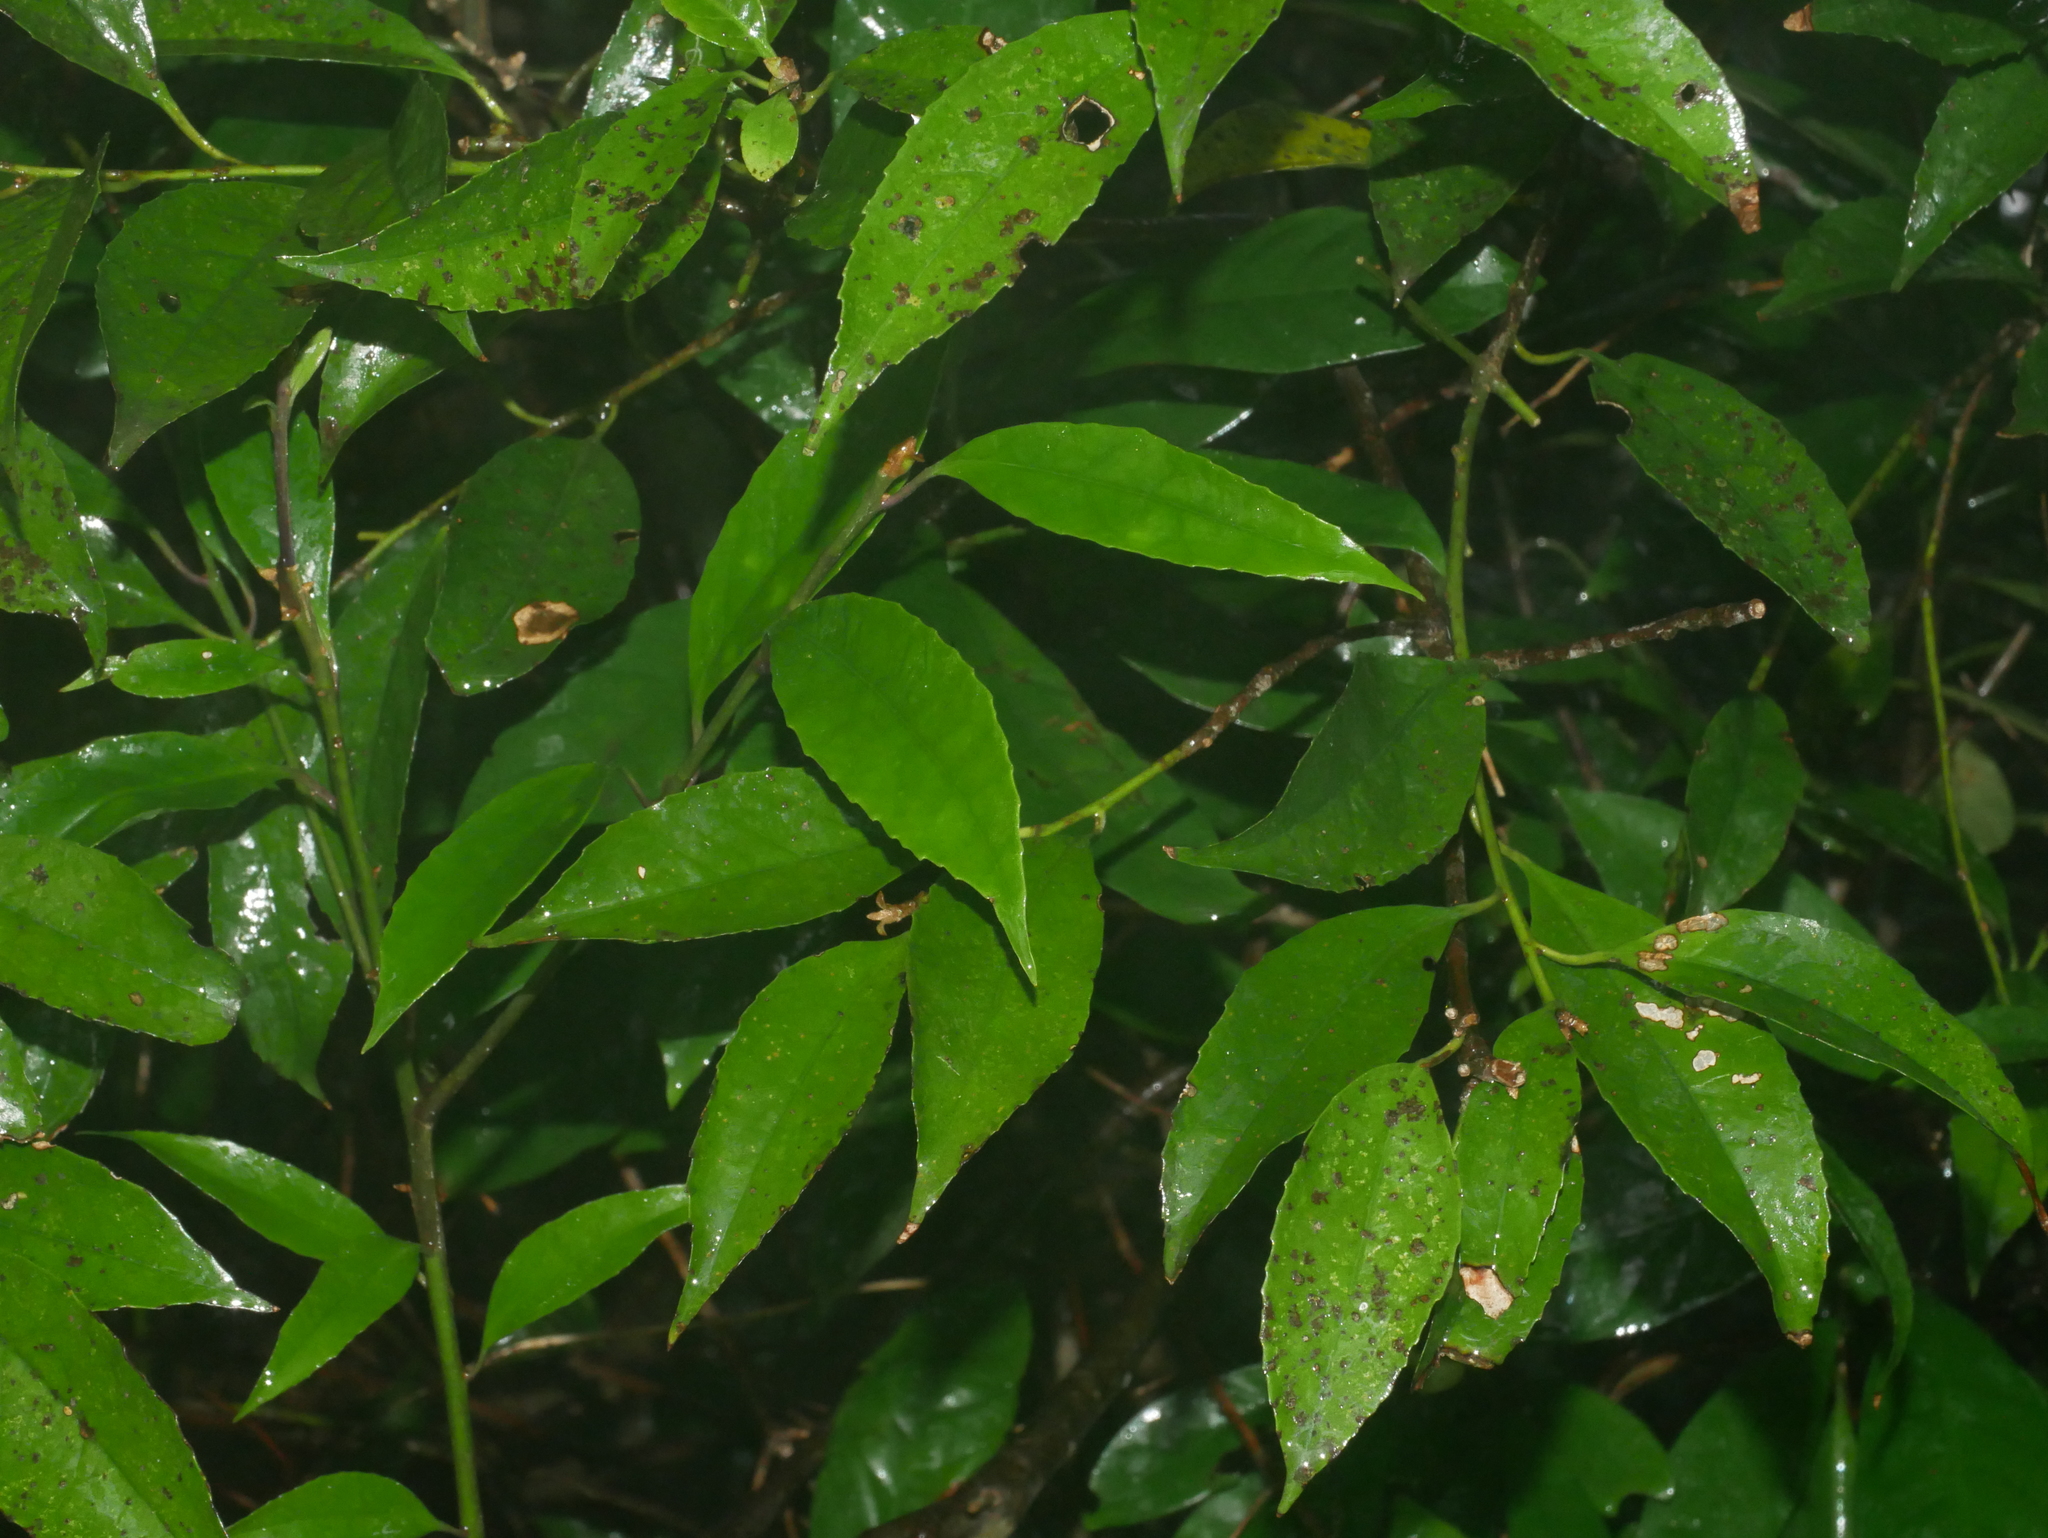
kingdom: Plantae
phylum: Tracheophyta
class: Magnoliopsida
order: Ericales
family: Symplocaceae
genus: Symplocos
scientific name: Symplocos acuminata
